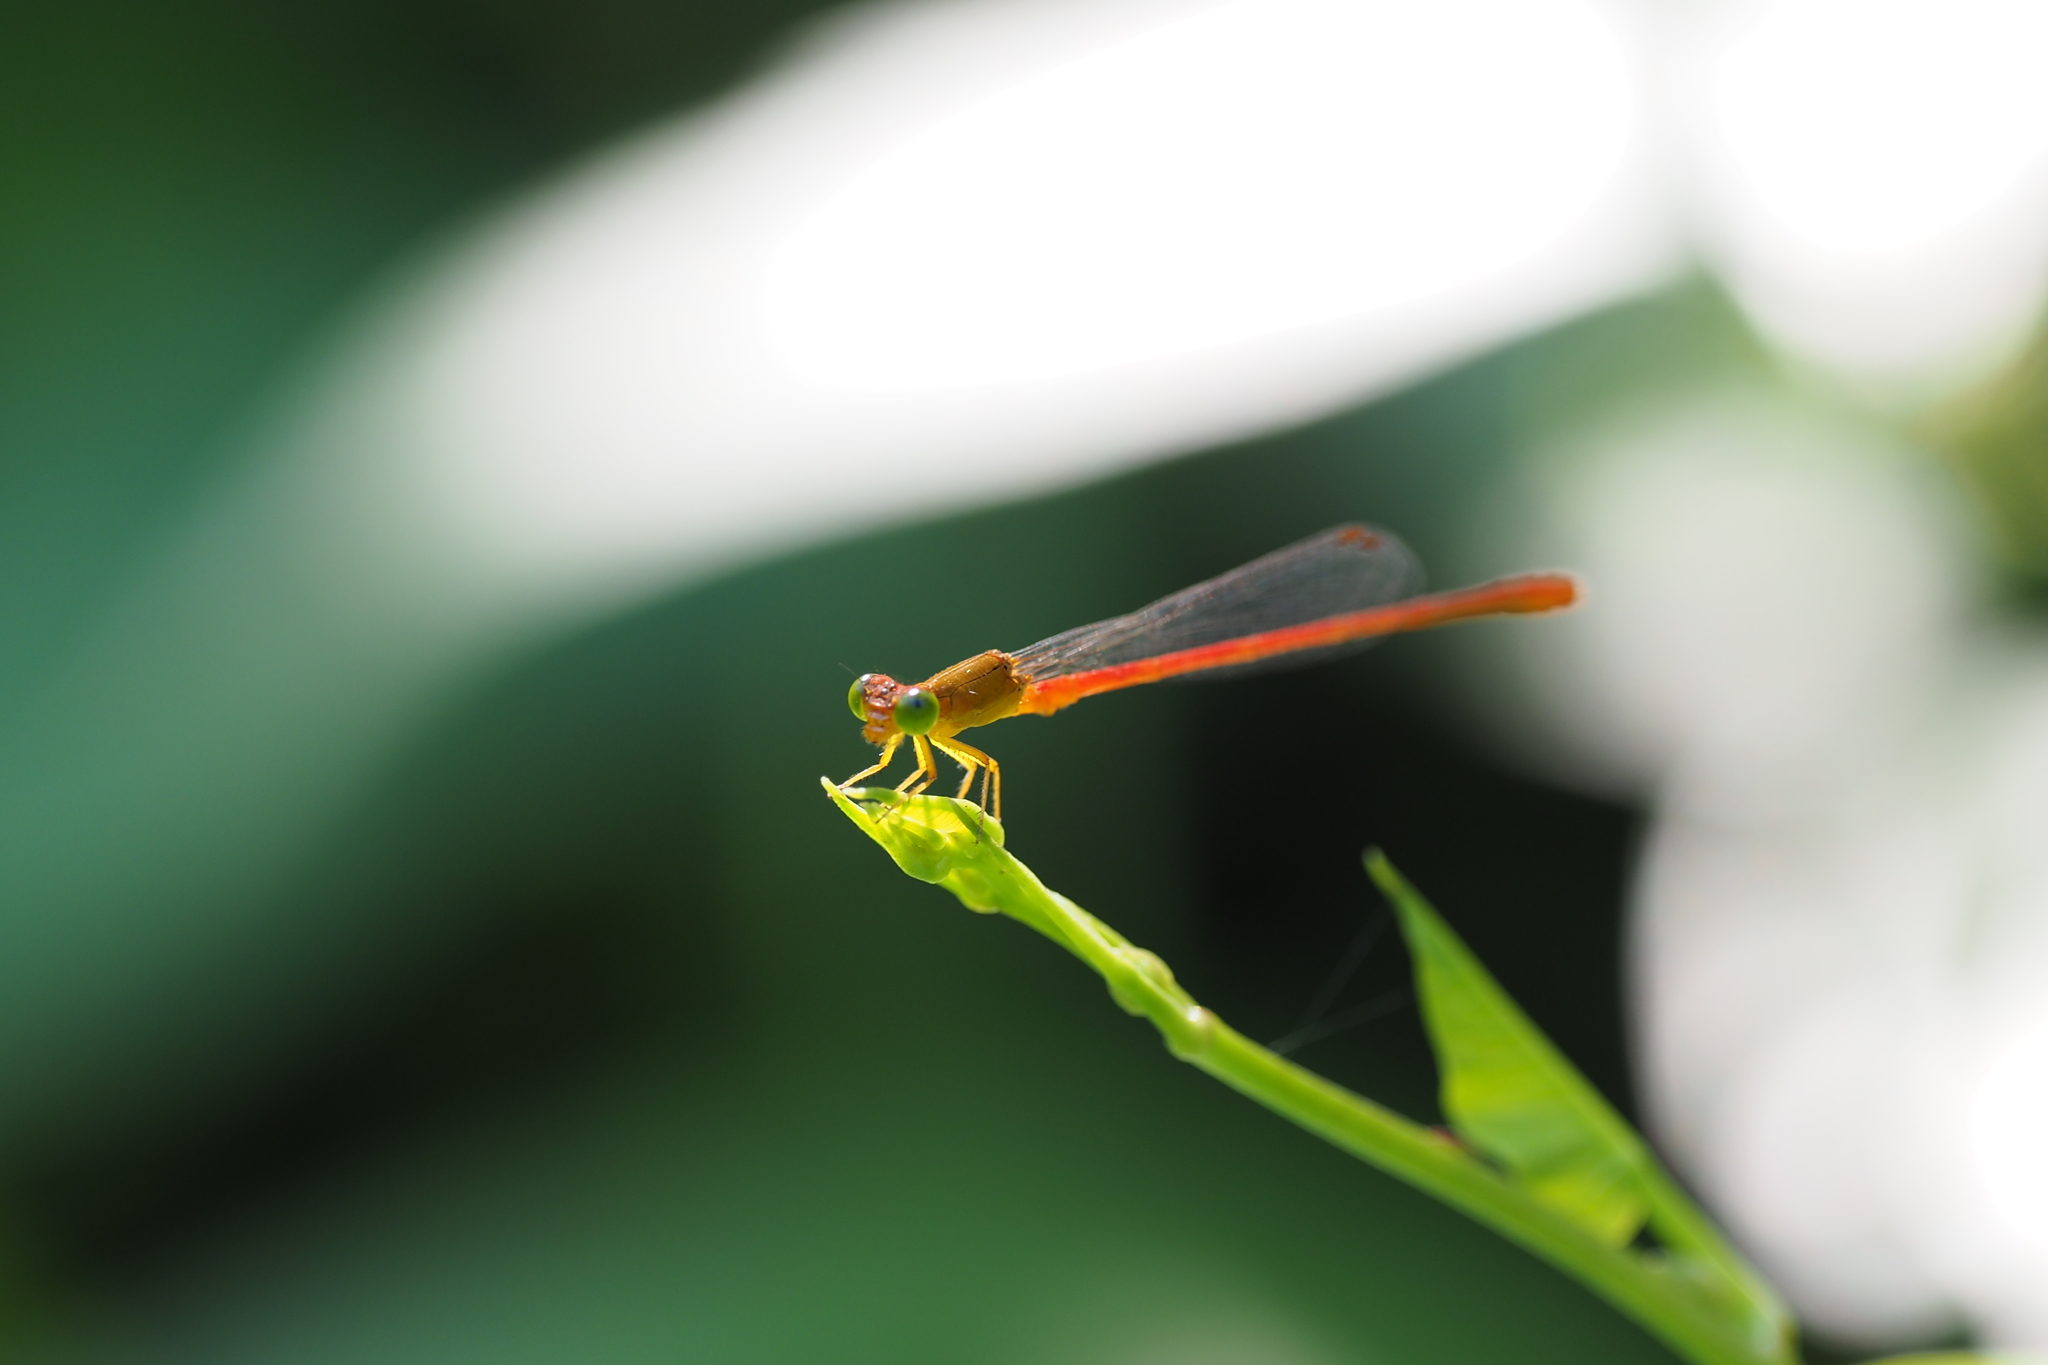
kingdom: Animalia
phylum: Arthropoda
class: Insecta
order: Odonata
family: Coenagrionidae
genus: Ceriagrion
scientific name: Ceriagrion auranticum
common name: Orange-tailed sprite
